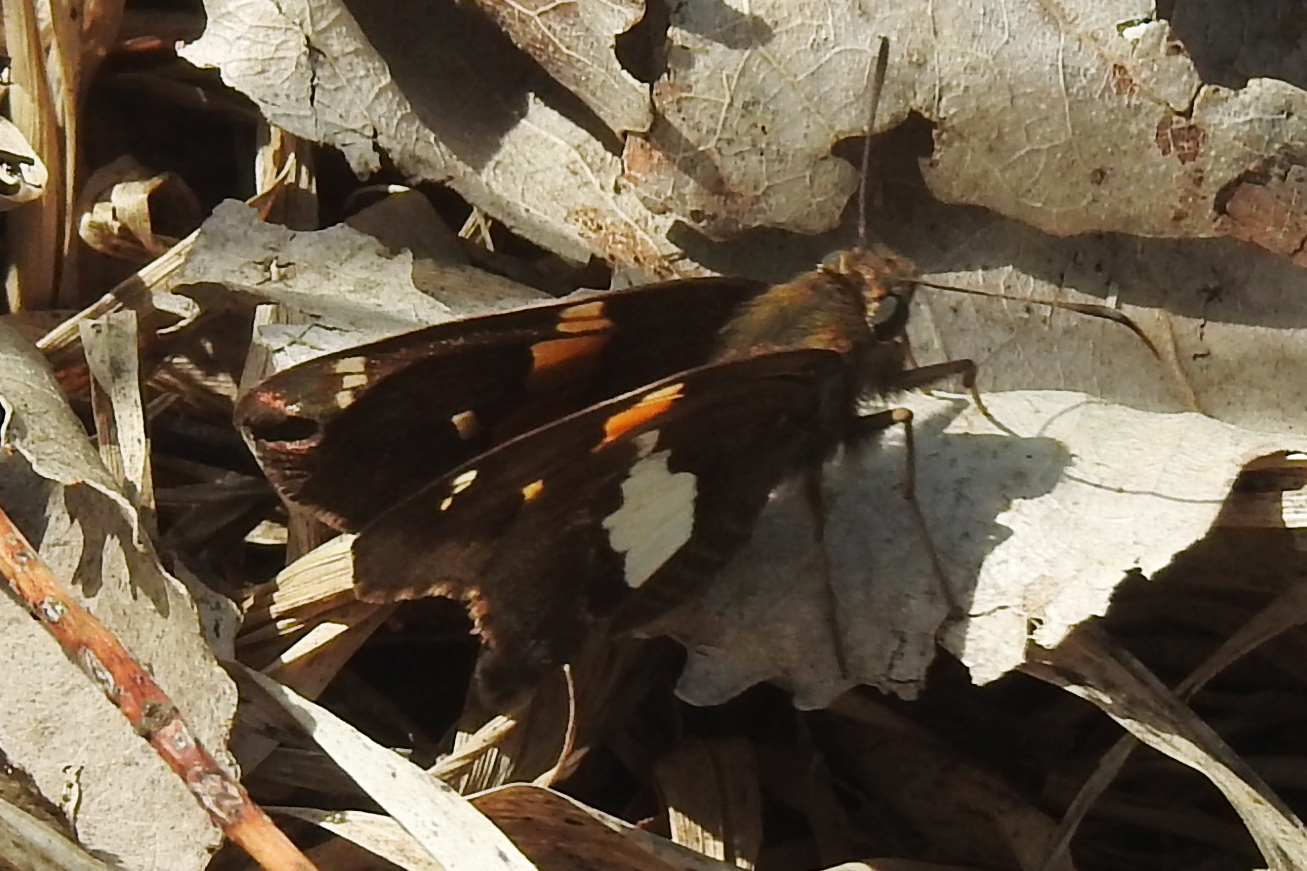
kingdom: Animalia
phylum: Arthropoda
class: Insecta
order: Lepidoptera
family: Hesperiidae
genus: Epargyreus
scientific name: Epargyreus clarus
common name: Silver-spotted skipper
